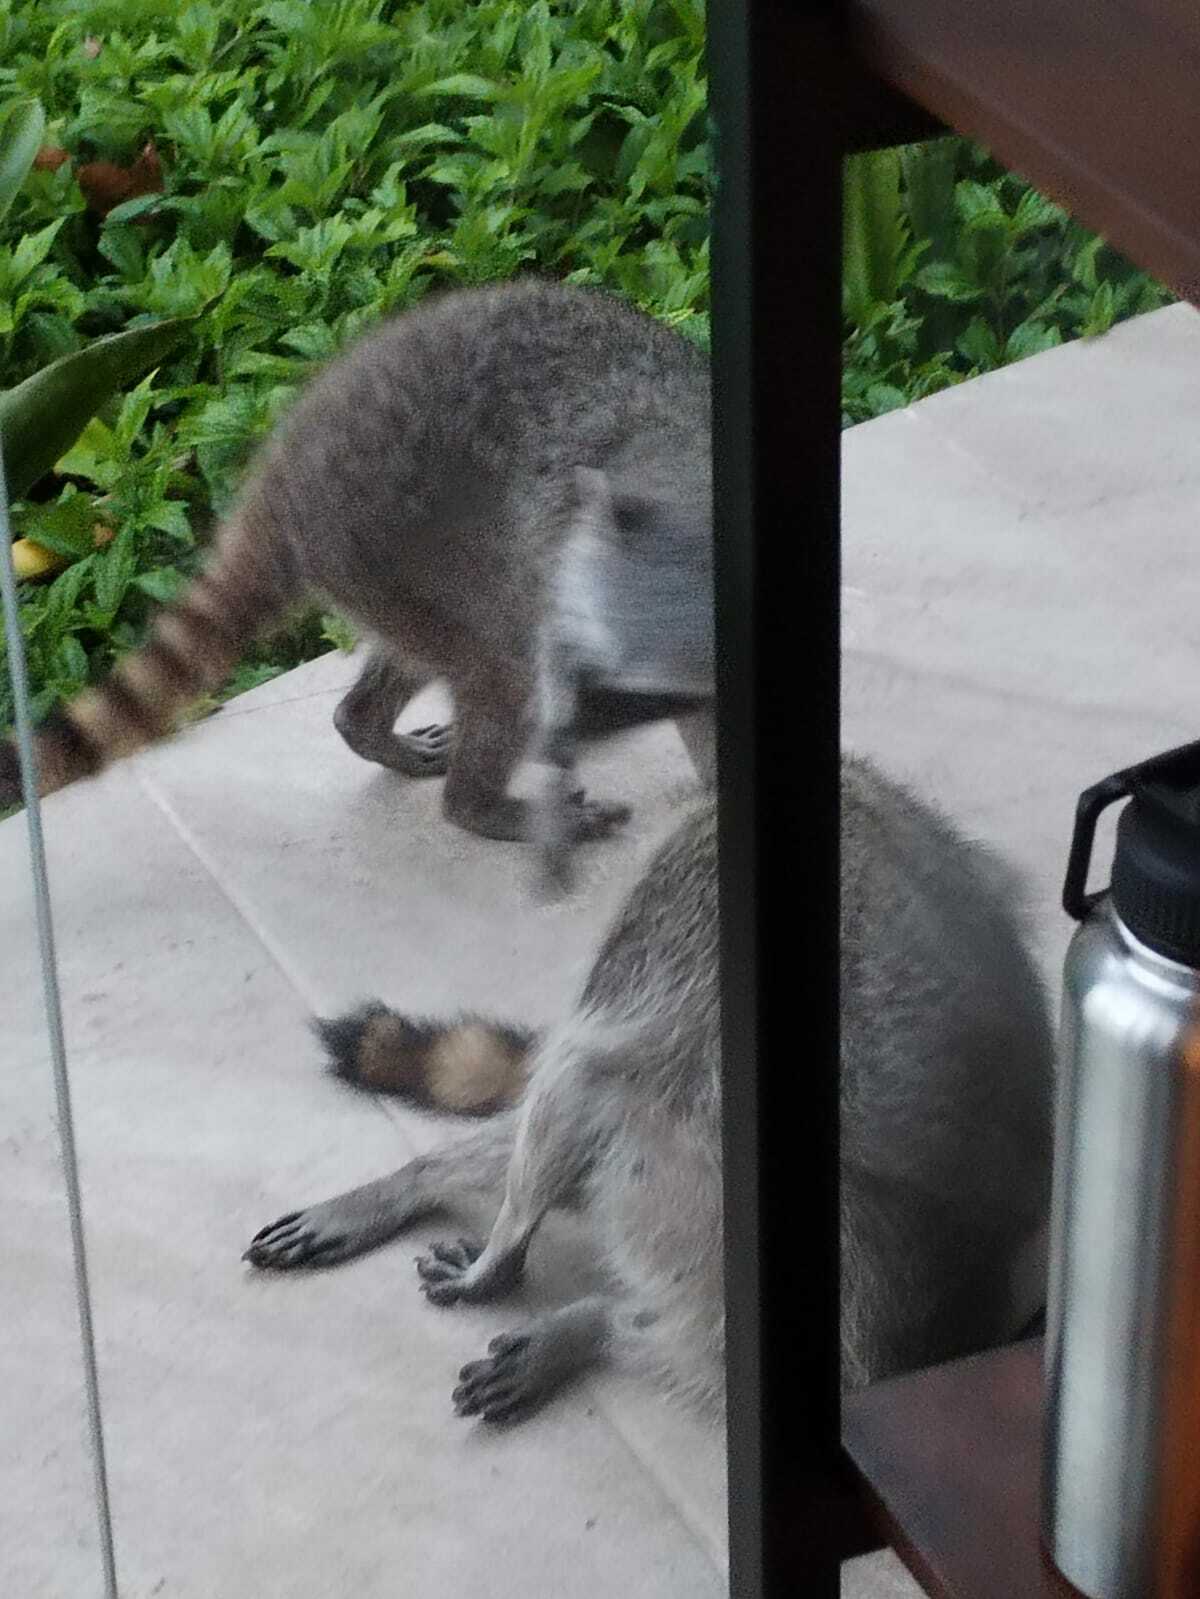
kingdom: Animalia
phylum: Chordata
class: Mammalia
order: Carnivora
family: Procyonidae
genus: Procyon
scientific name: Procyon lotor
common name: Raccoon
